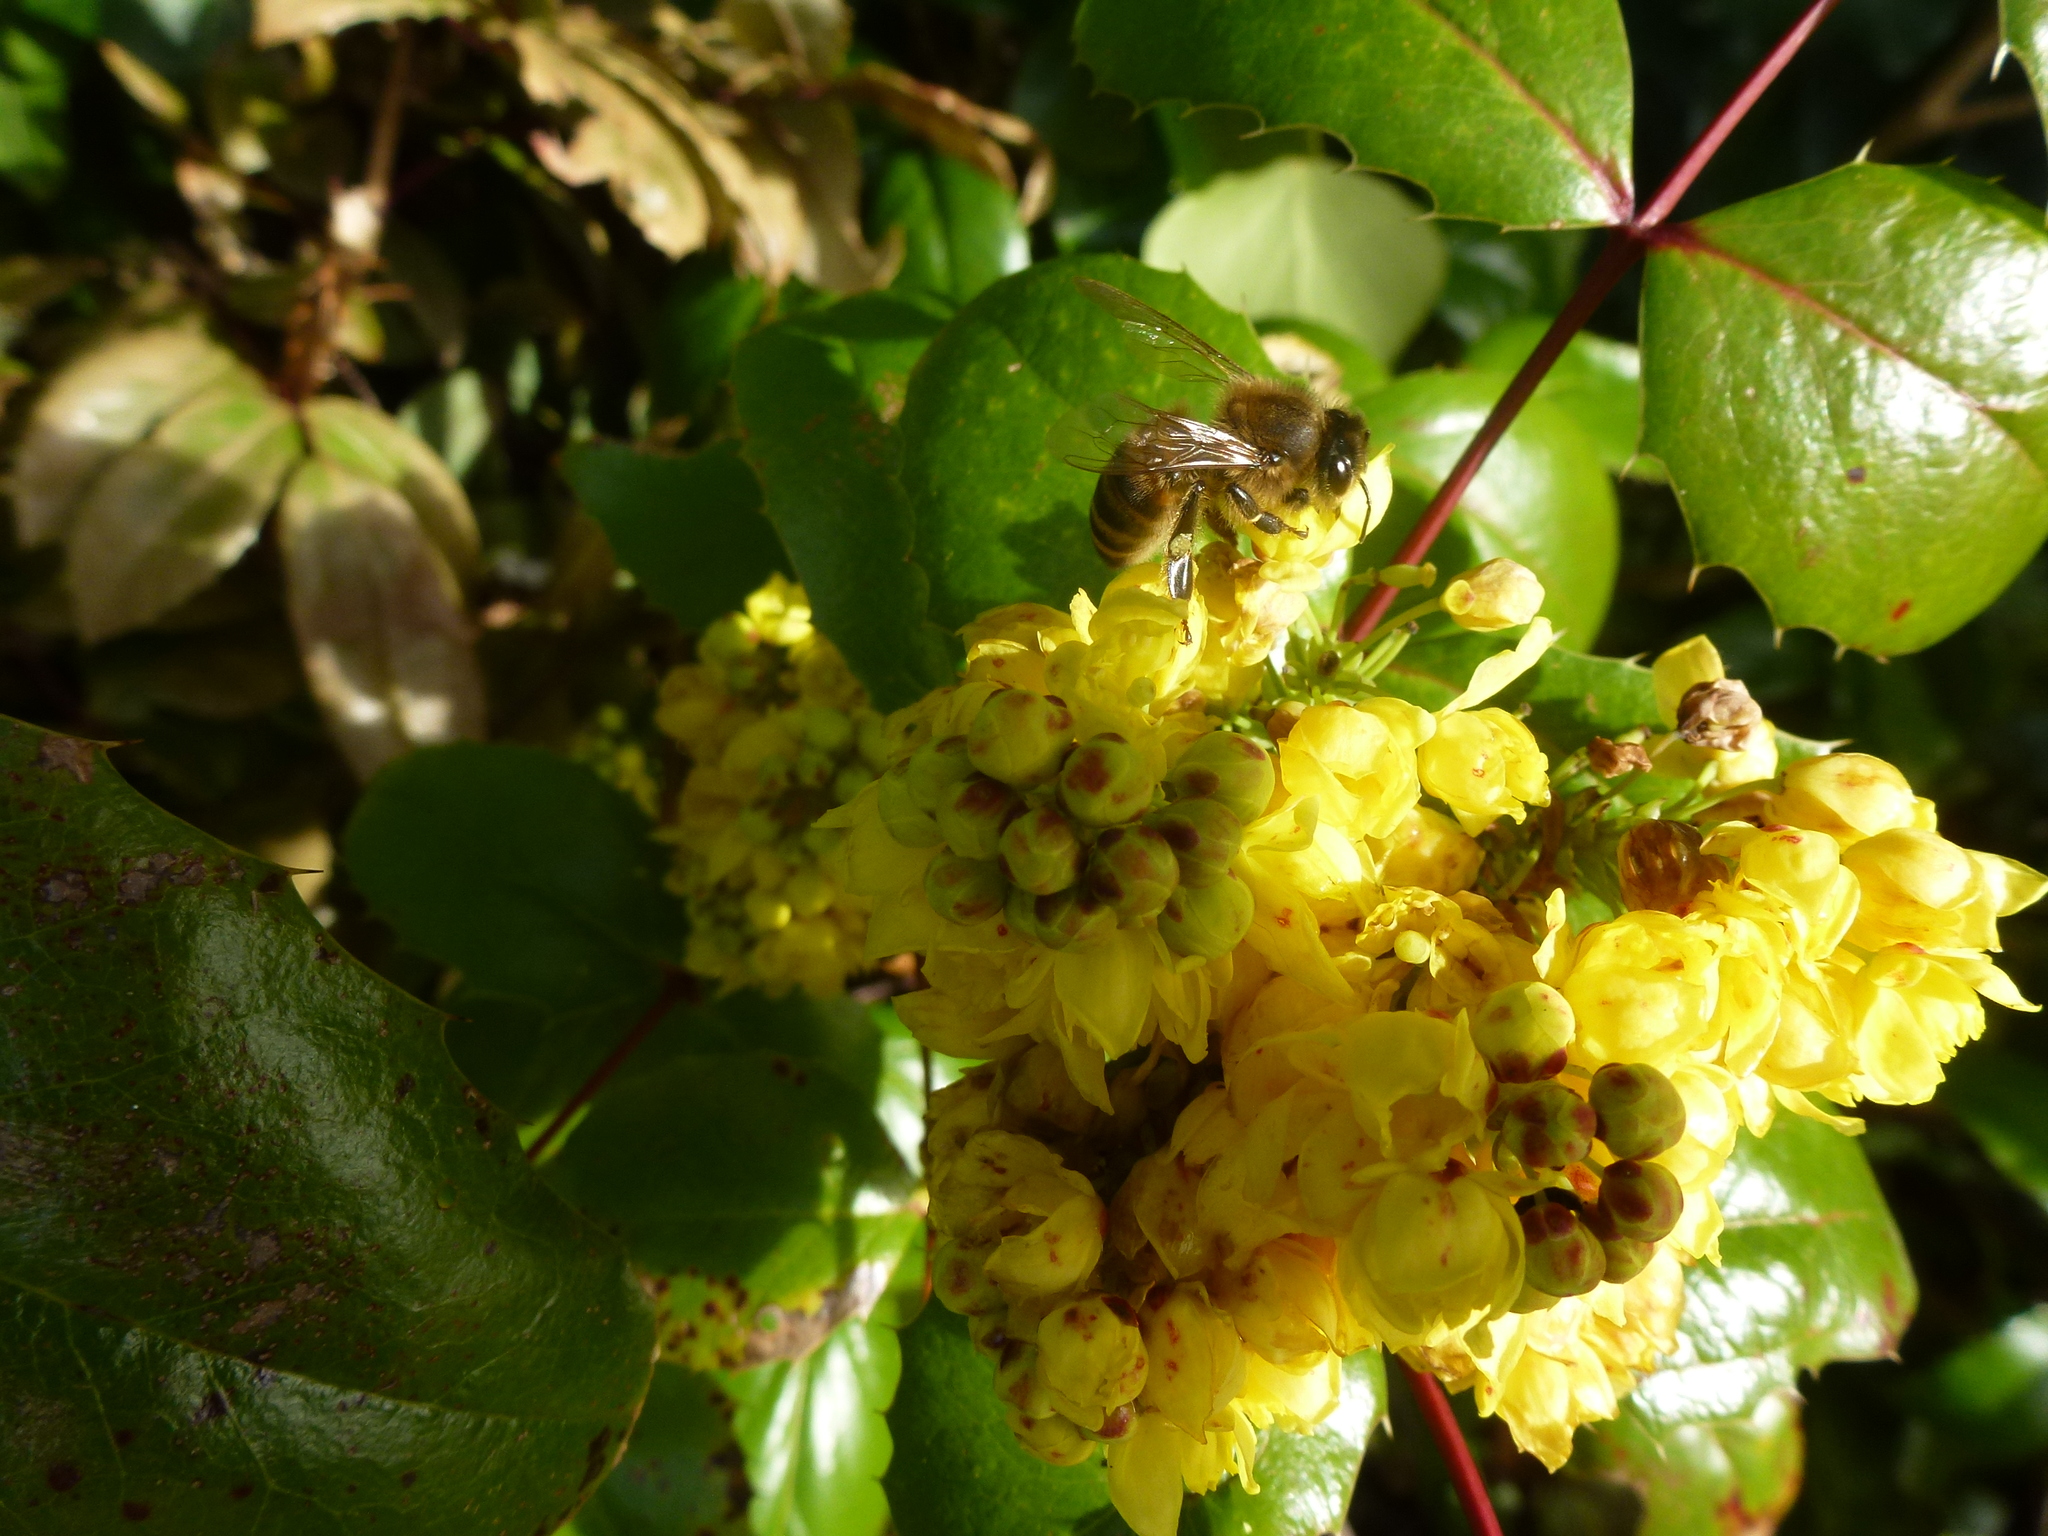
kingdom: Animalia
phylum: Arthropoda
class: Insecta
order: Hymenoptera
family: Apidae
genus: Apis
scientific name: Apis mellifera
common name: Honey bee
